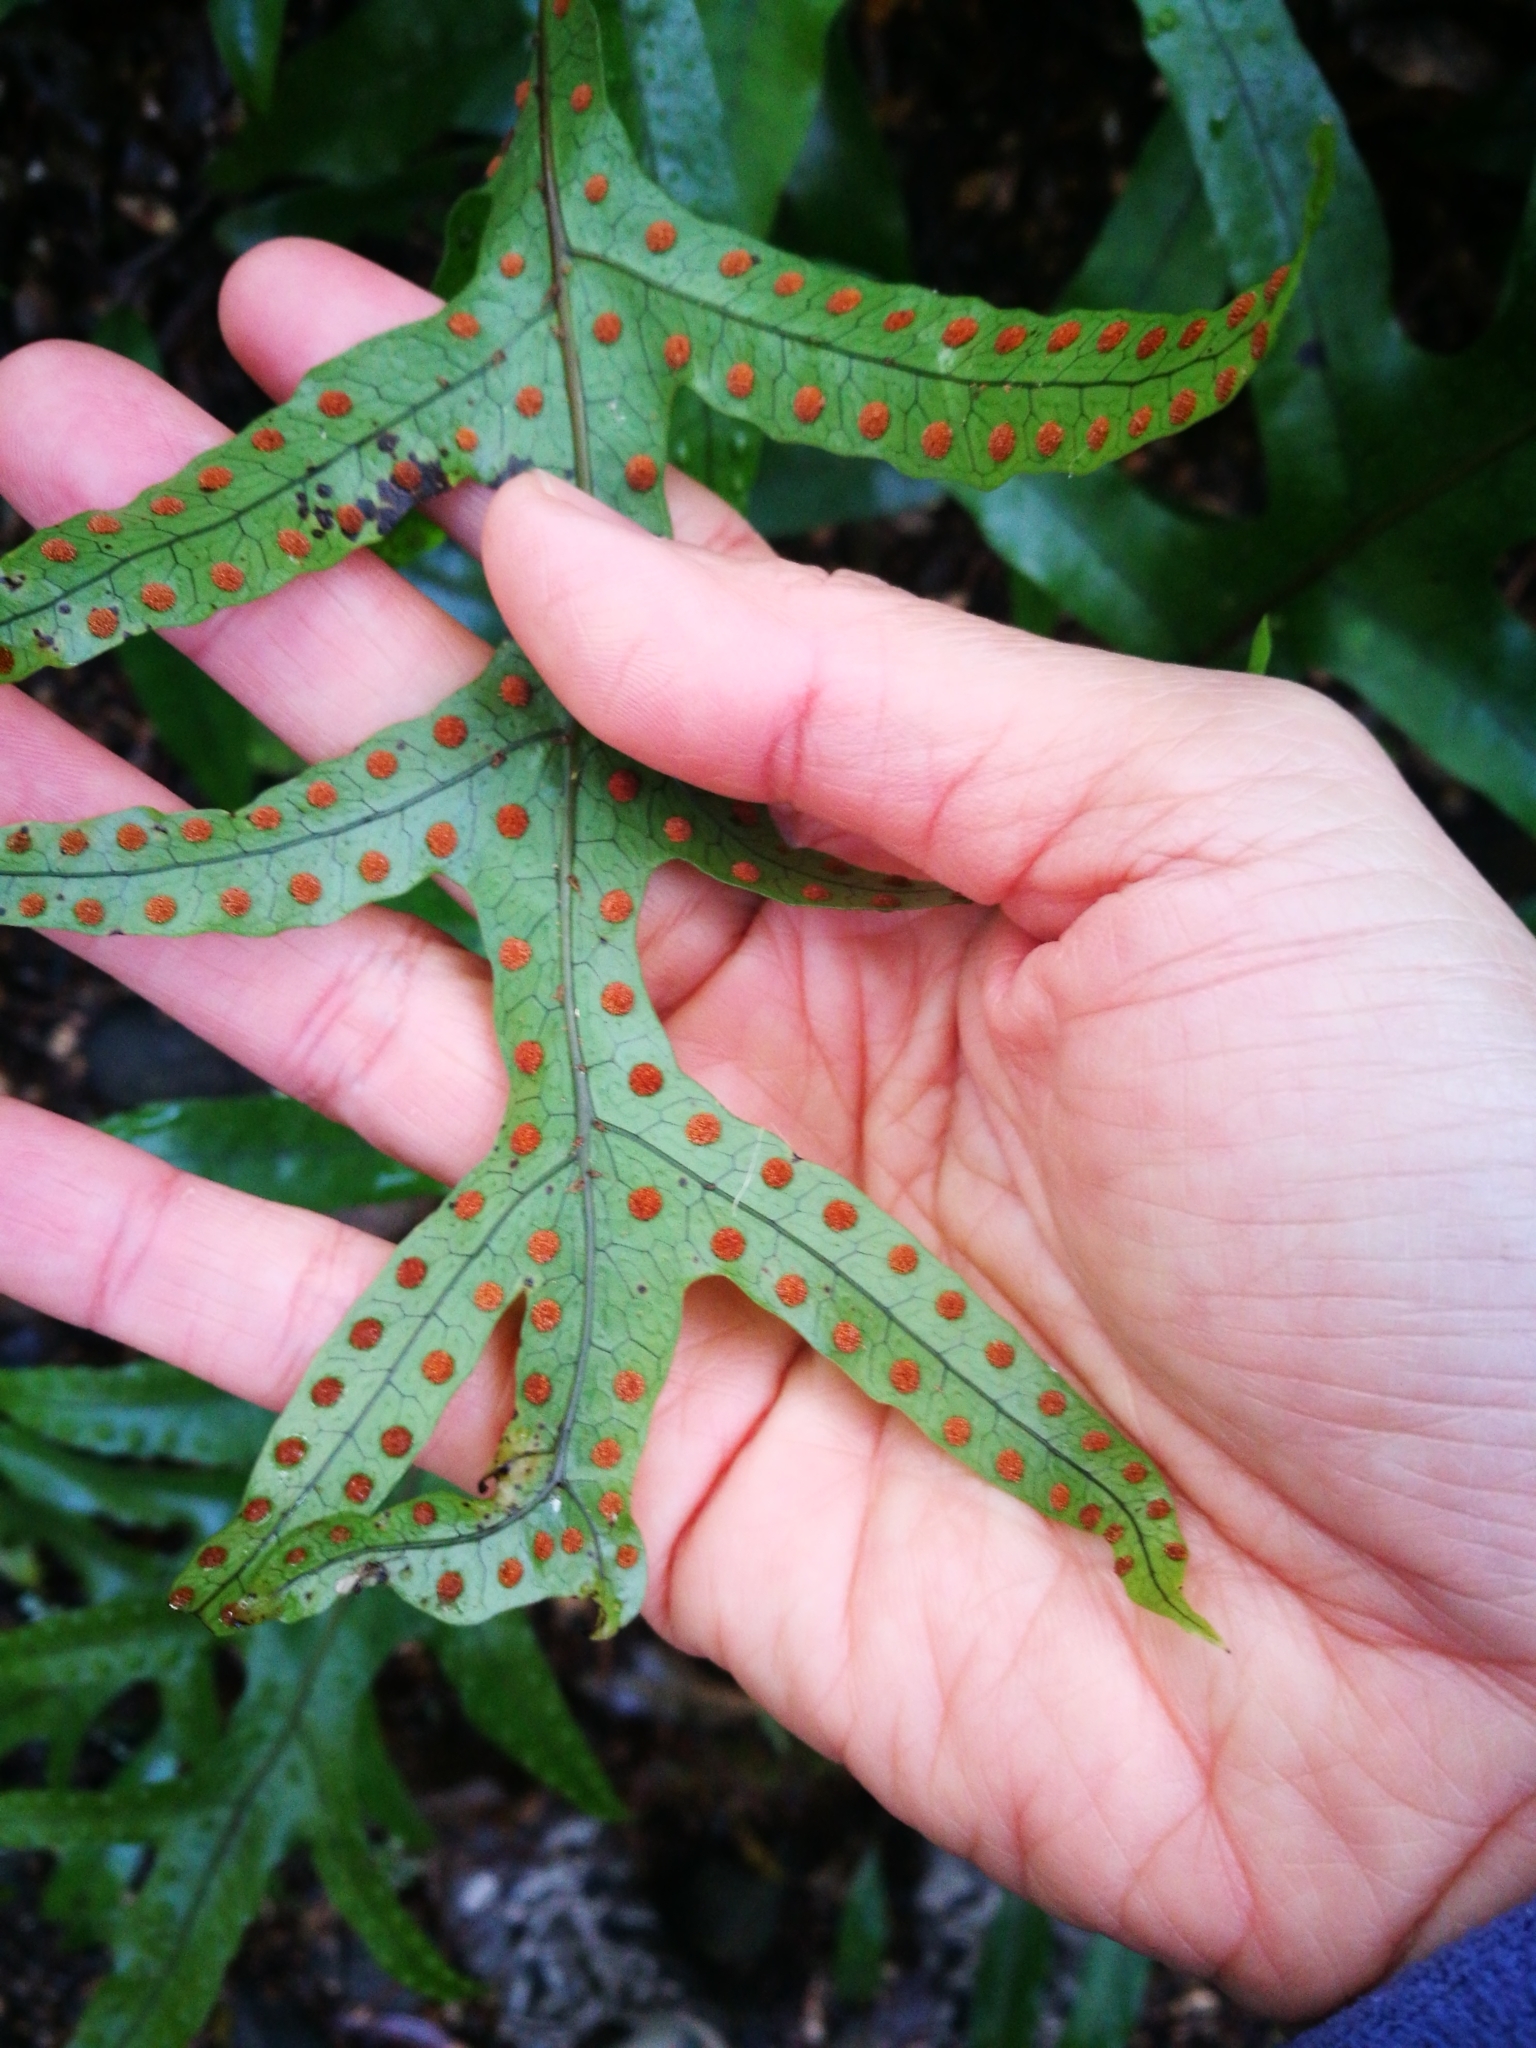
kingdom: Plantae
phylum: Tracheophyta
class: Polypodiopsida
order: Polypodiales
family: Polypodiaceae
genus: Lecanopteris
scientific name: Lecanopteris pustulata
